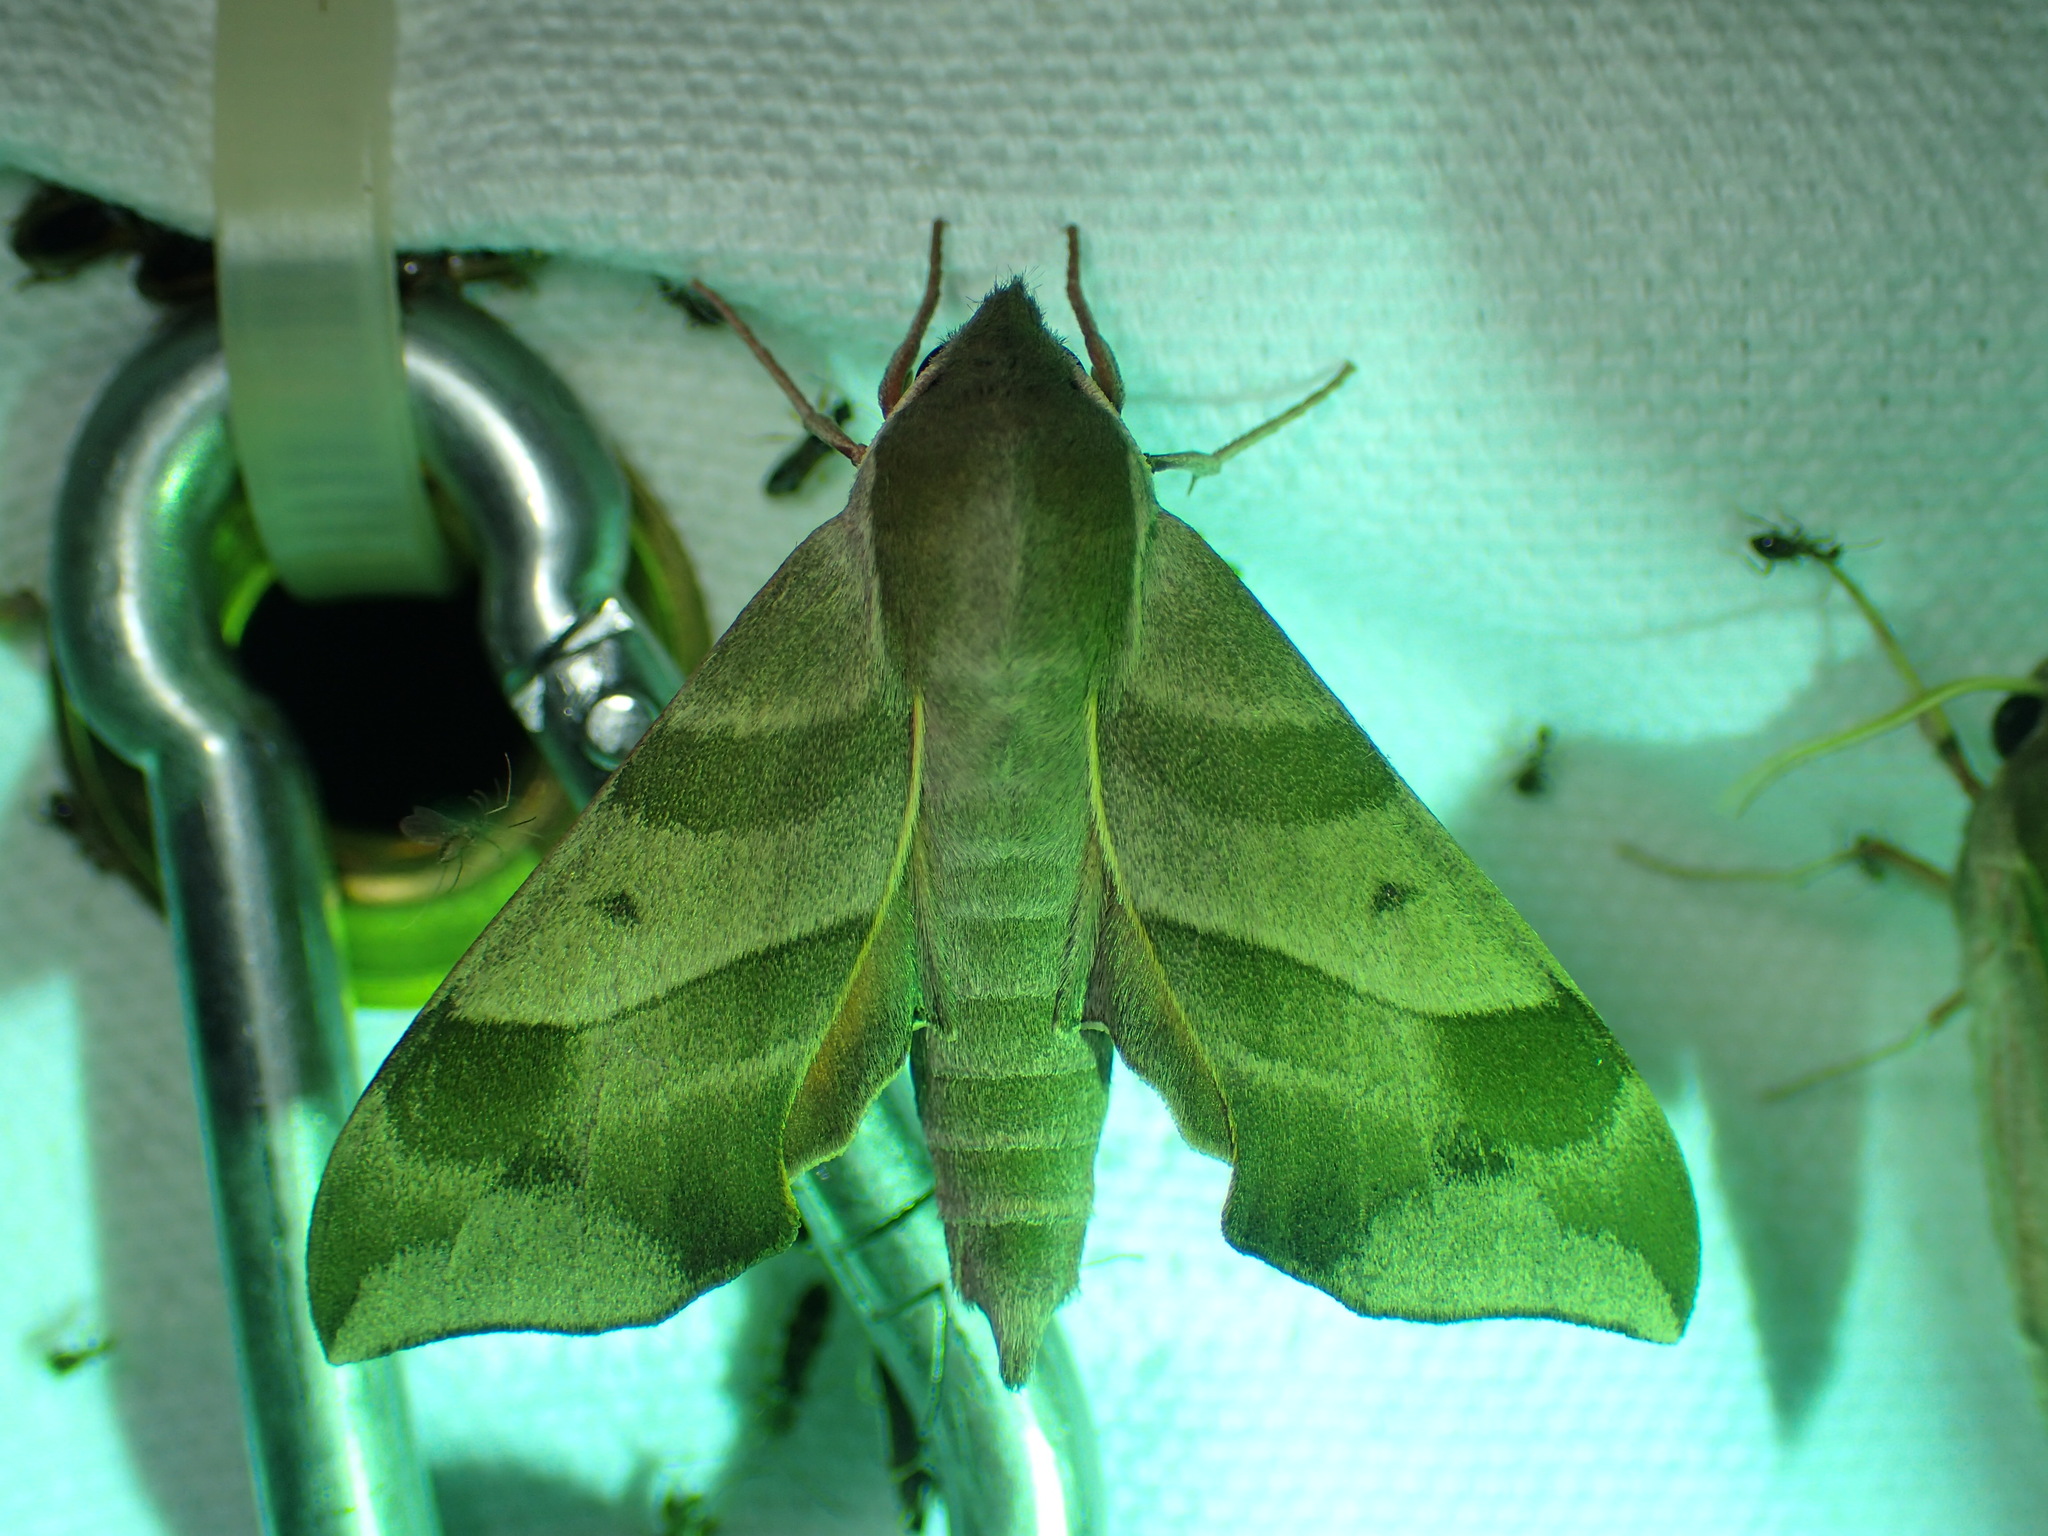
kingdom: Animalia
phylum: Arthropoda
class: Insecta
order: Lepidoptera
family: Sphingidae
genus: Darapsa
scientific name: Darapsa myron
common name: Hog sphinx
